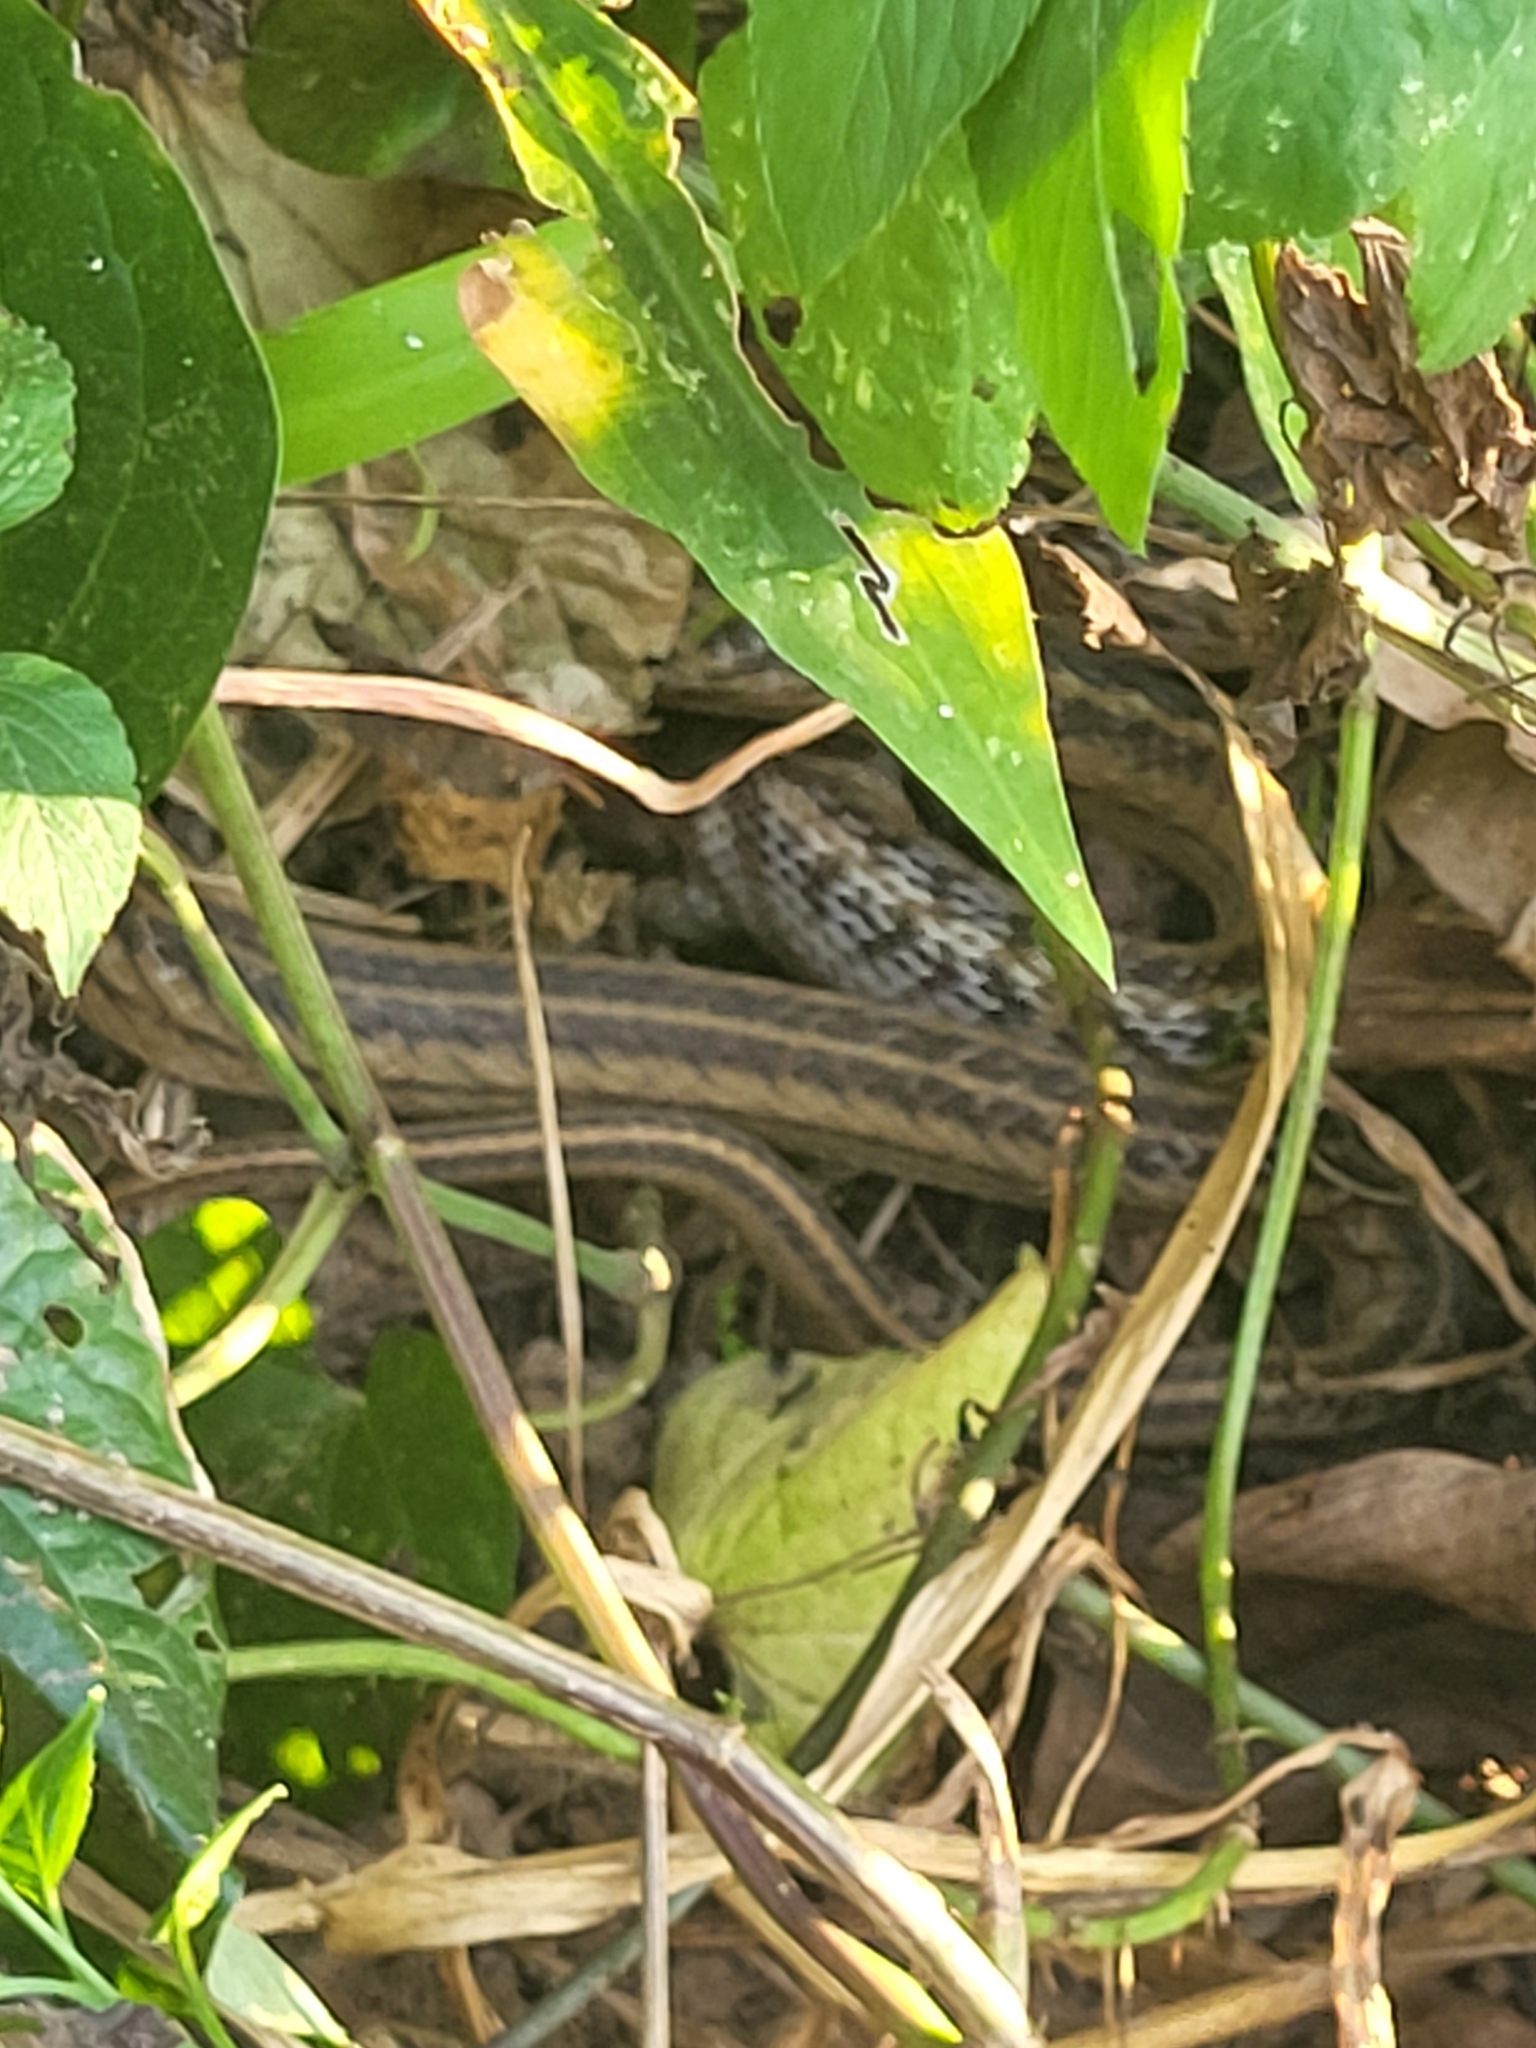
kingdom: Animalia
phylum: Chordata
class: Squamata
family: Colubridae
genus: Oligodon
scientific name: Oligodon fasciolatus
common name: Fasciolated kukri snake
